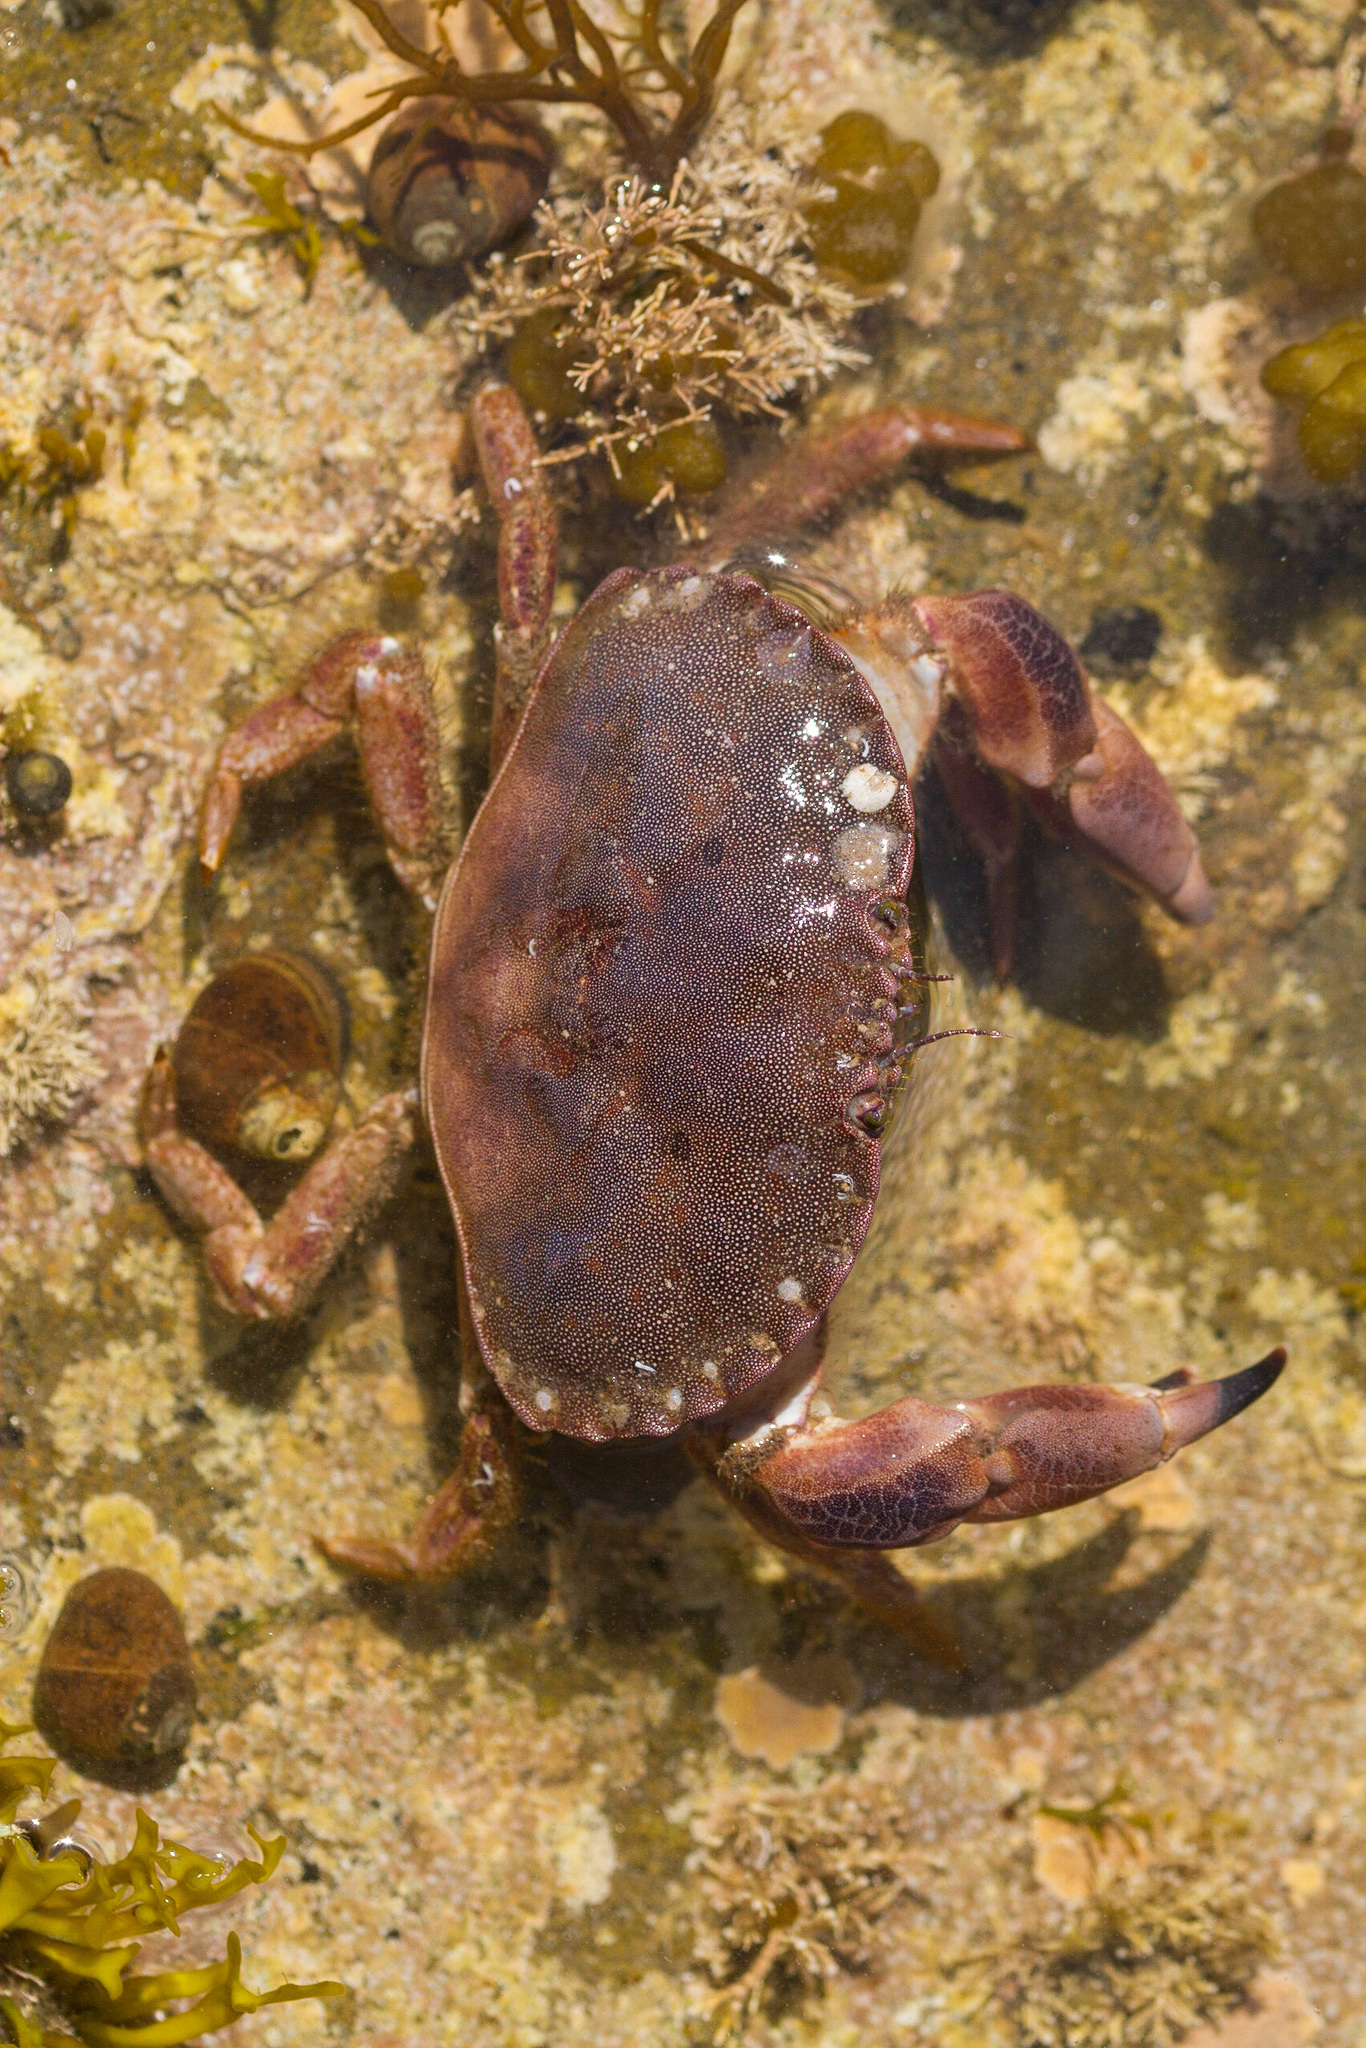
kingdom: Animalia
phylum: Arthropoda
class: Malacostraca
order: Decapoda
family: Cancridae
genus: Cancer
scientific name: Cancer pagurus
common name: Edible crab
